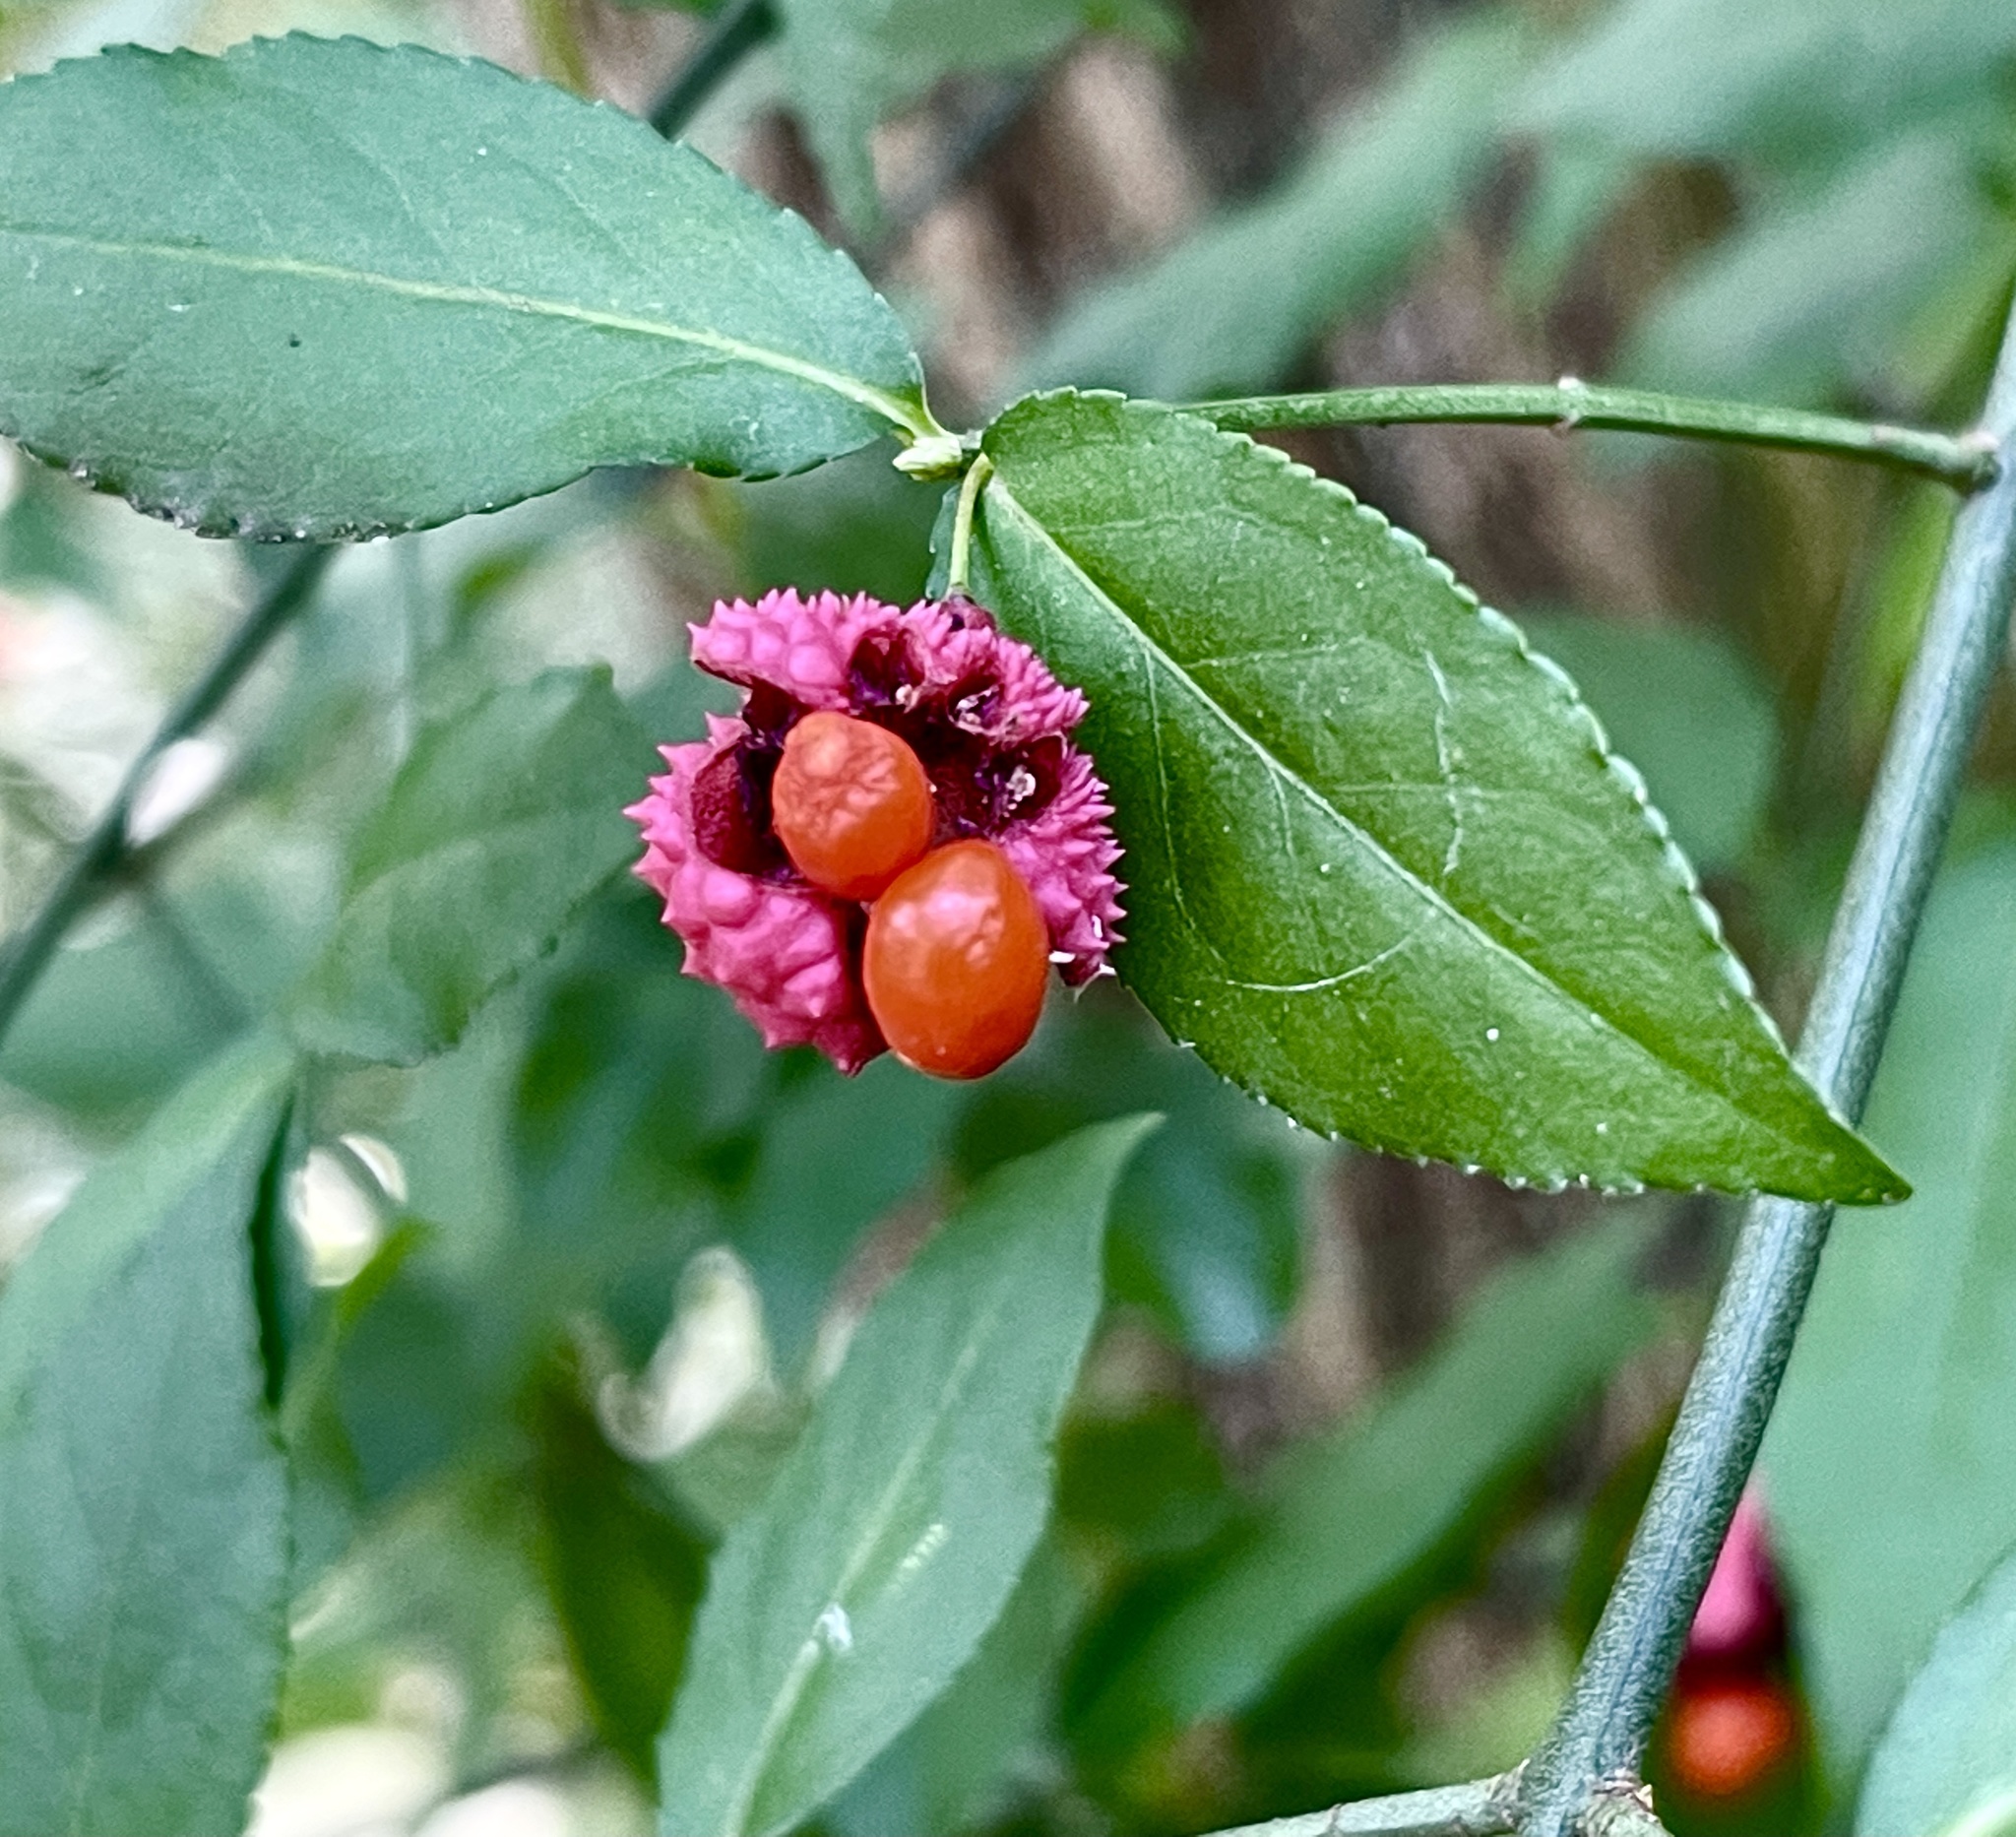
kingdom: Plantae
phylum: Tracheophyta
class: Magnoliopsida
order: Celastrales
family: Celastraceae
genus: Euonymus
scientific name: Euonymus americanus
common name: Bursting-heart
